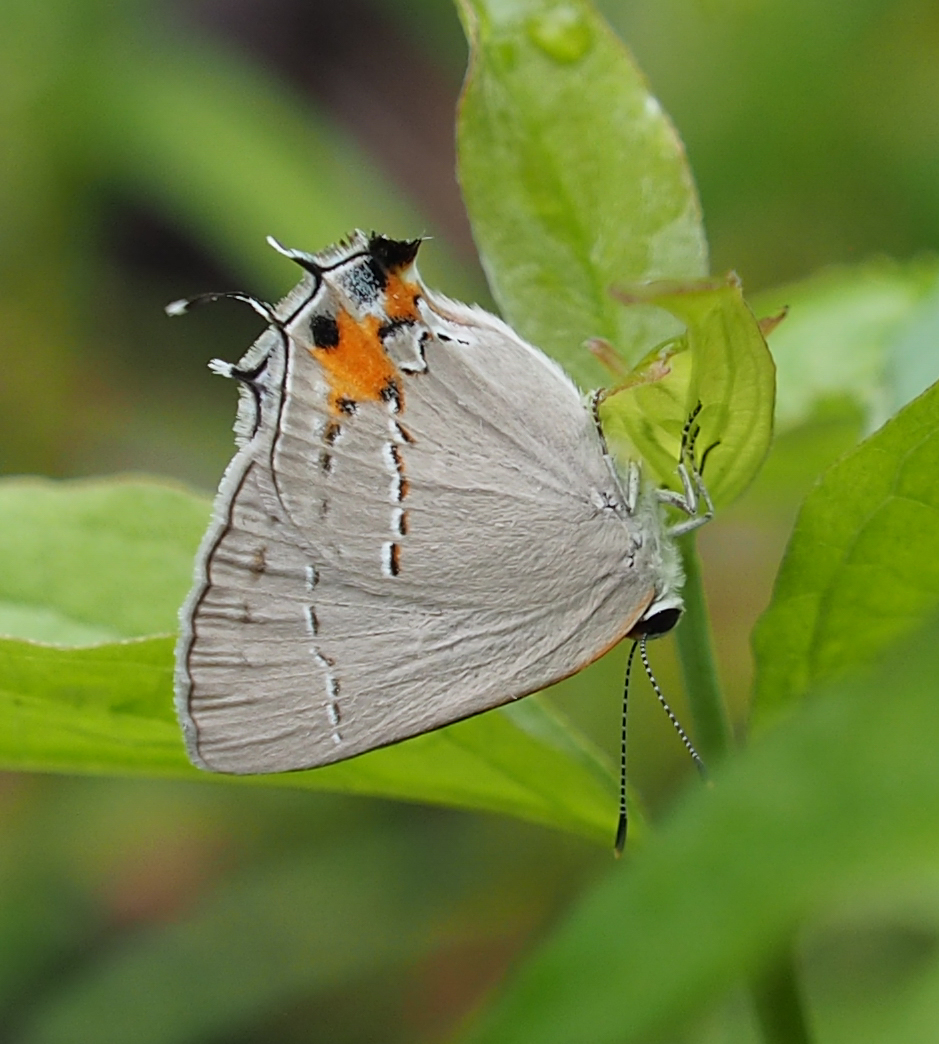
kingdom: Animalia
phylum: Arthropoda
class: Insecta
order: Lepidoptera
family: Lycaenidae
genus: Strymon
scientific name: Strymon melinus
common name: Gray hairstreak
